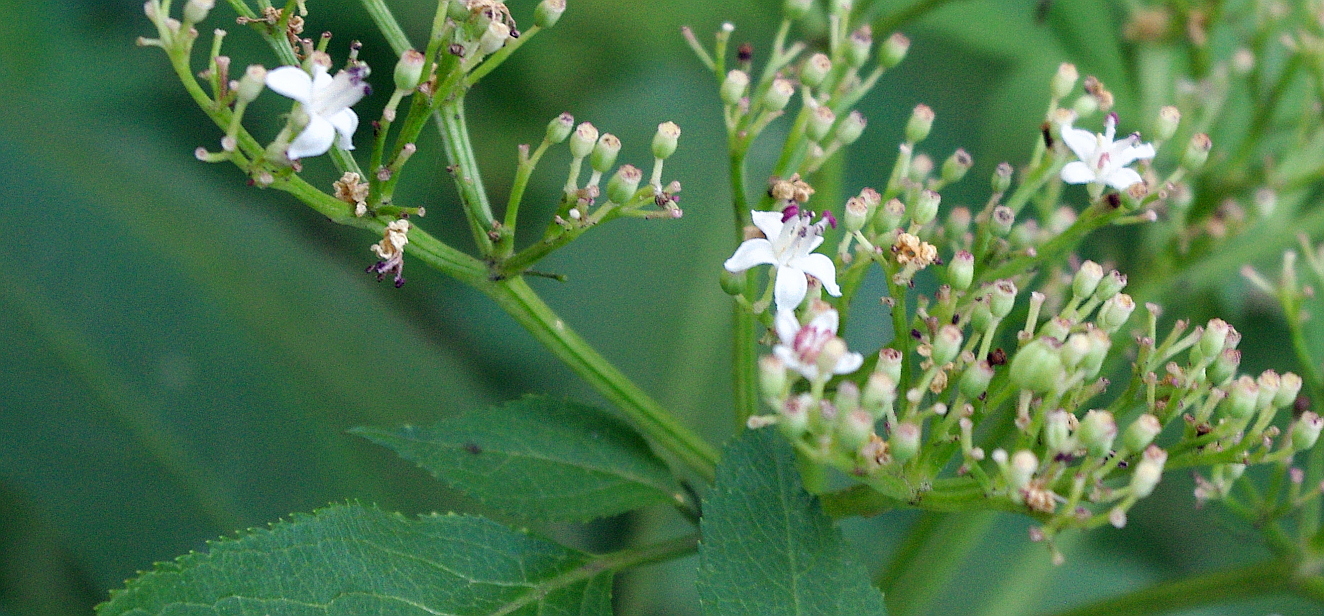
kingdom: Plantae
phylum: Tracheophyta
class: Magnoliopsida
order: Dipsacales
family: Viburnaceae
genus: Sambucus
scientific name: Sambucus ebulus
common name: Dwarf elder
